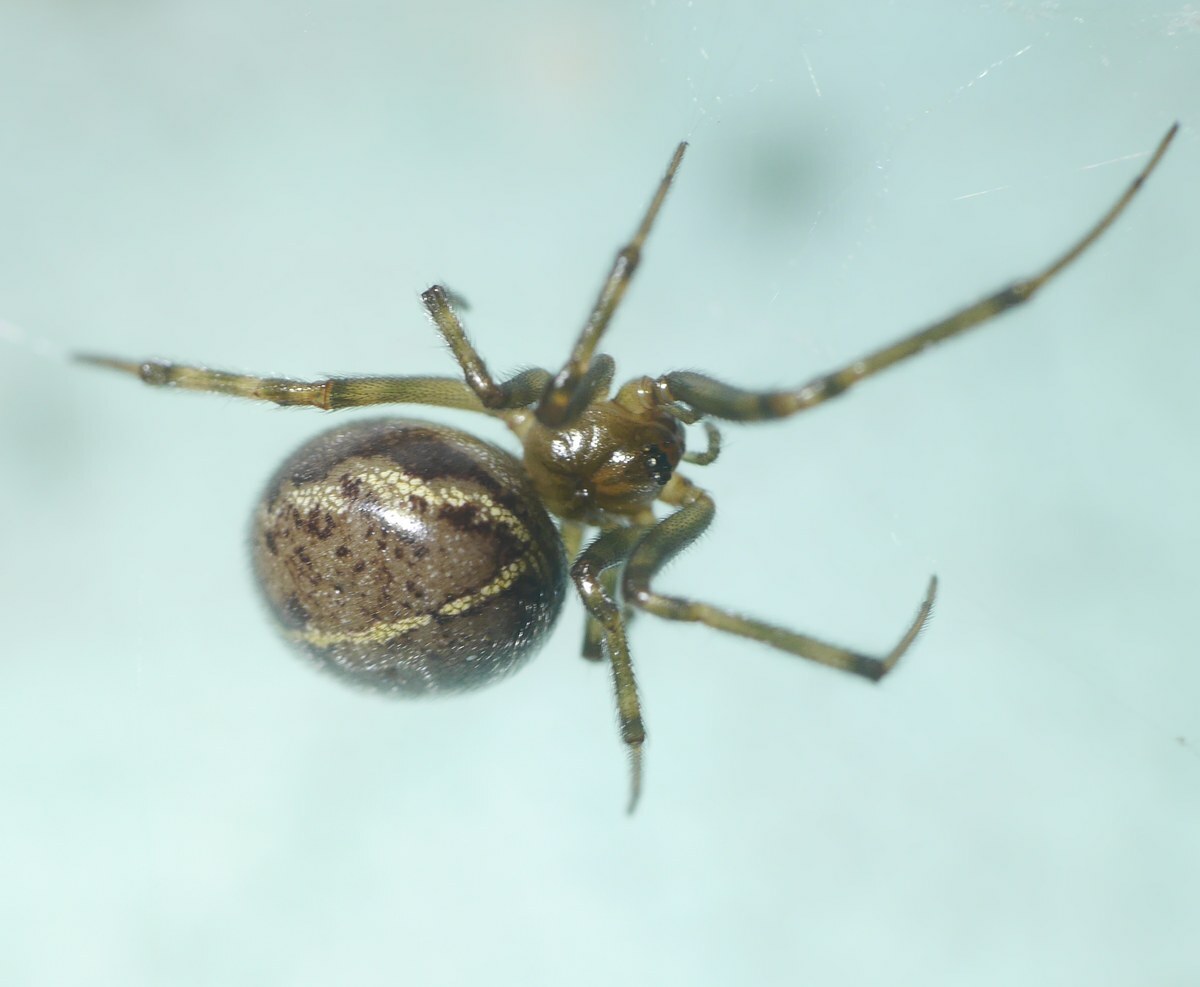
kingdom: Animalia
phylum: Arthropoda
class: Arachnida
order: Araneae
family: Theridiidae
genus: Steatoda
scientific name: Steatoda castanea
